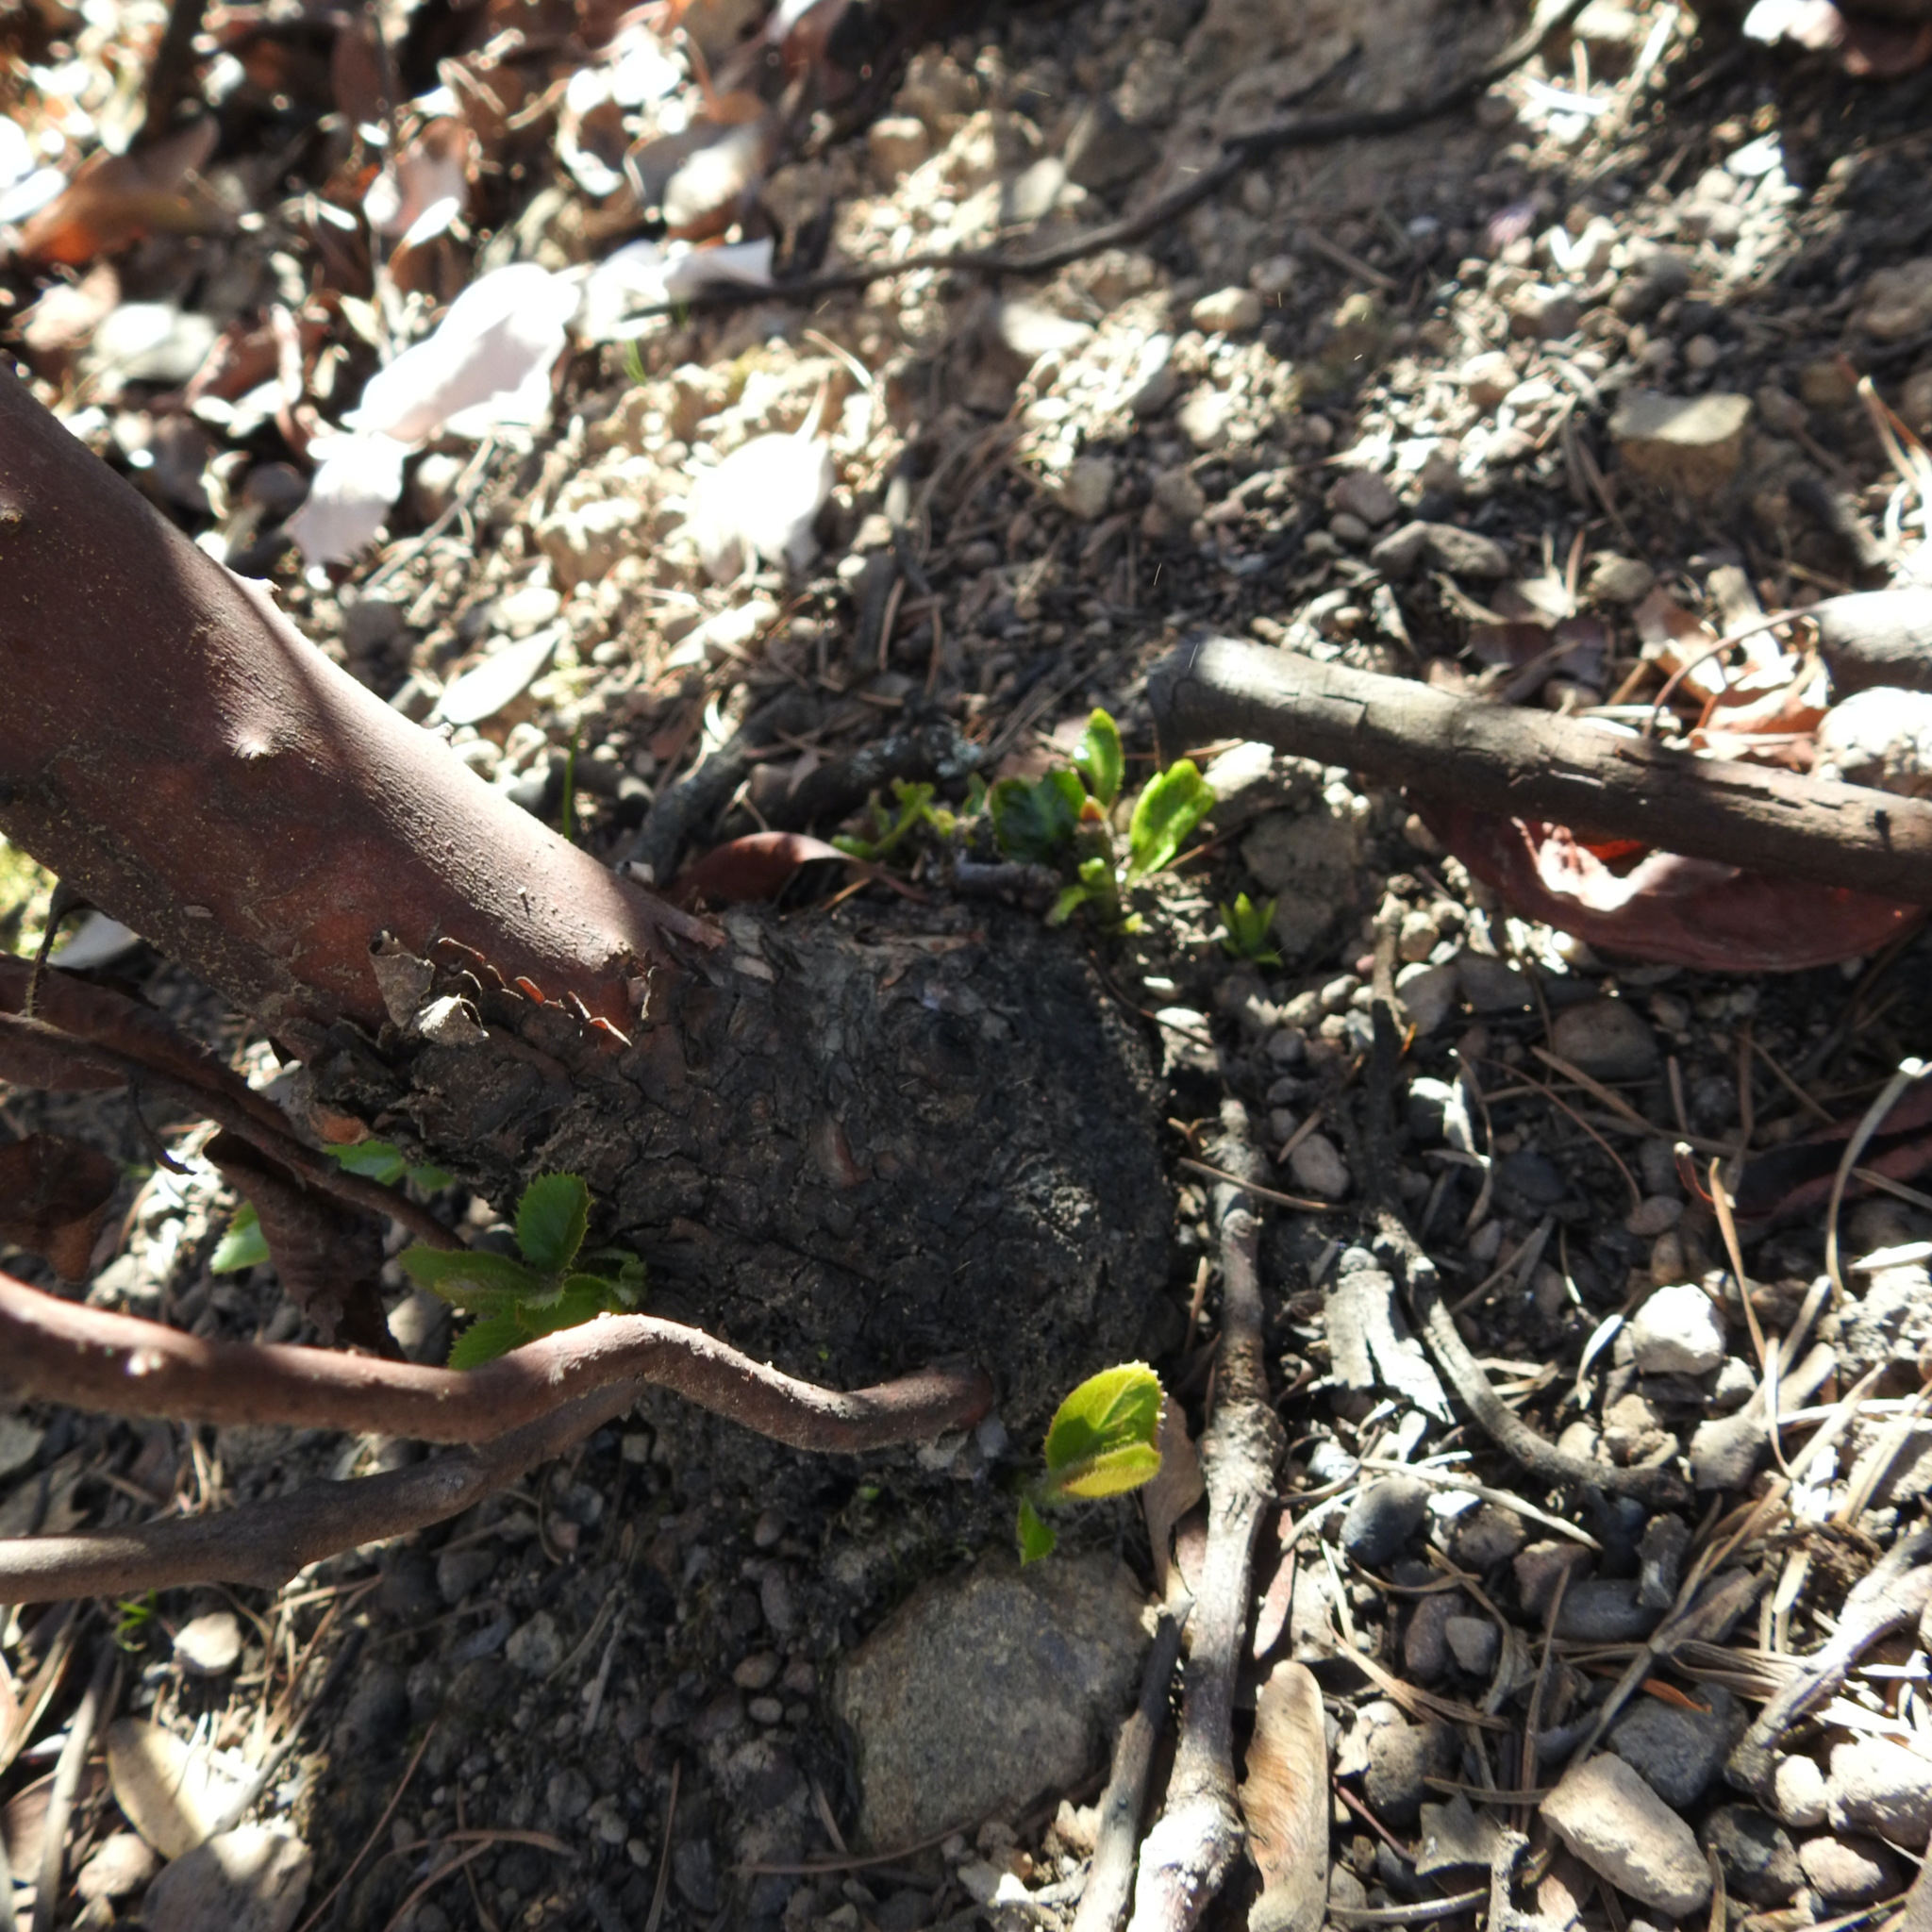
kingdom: Plantae
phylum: Tracheophyta
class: Magnoliopsida
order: Ericales
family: Ericaceae
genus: Arbutus
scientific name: Arbutus menziesii
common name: Pacific madrone
